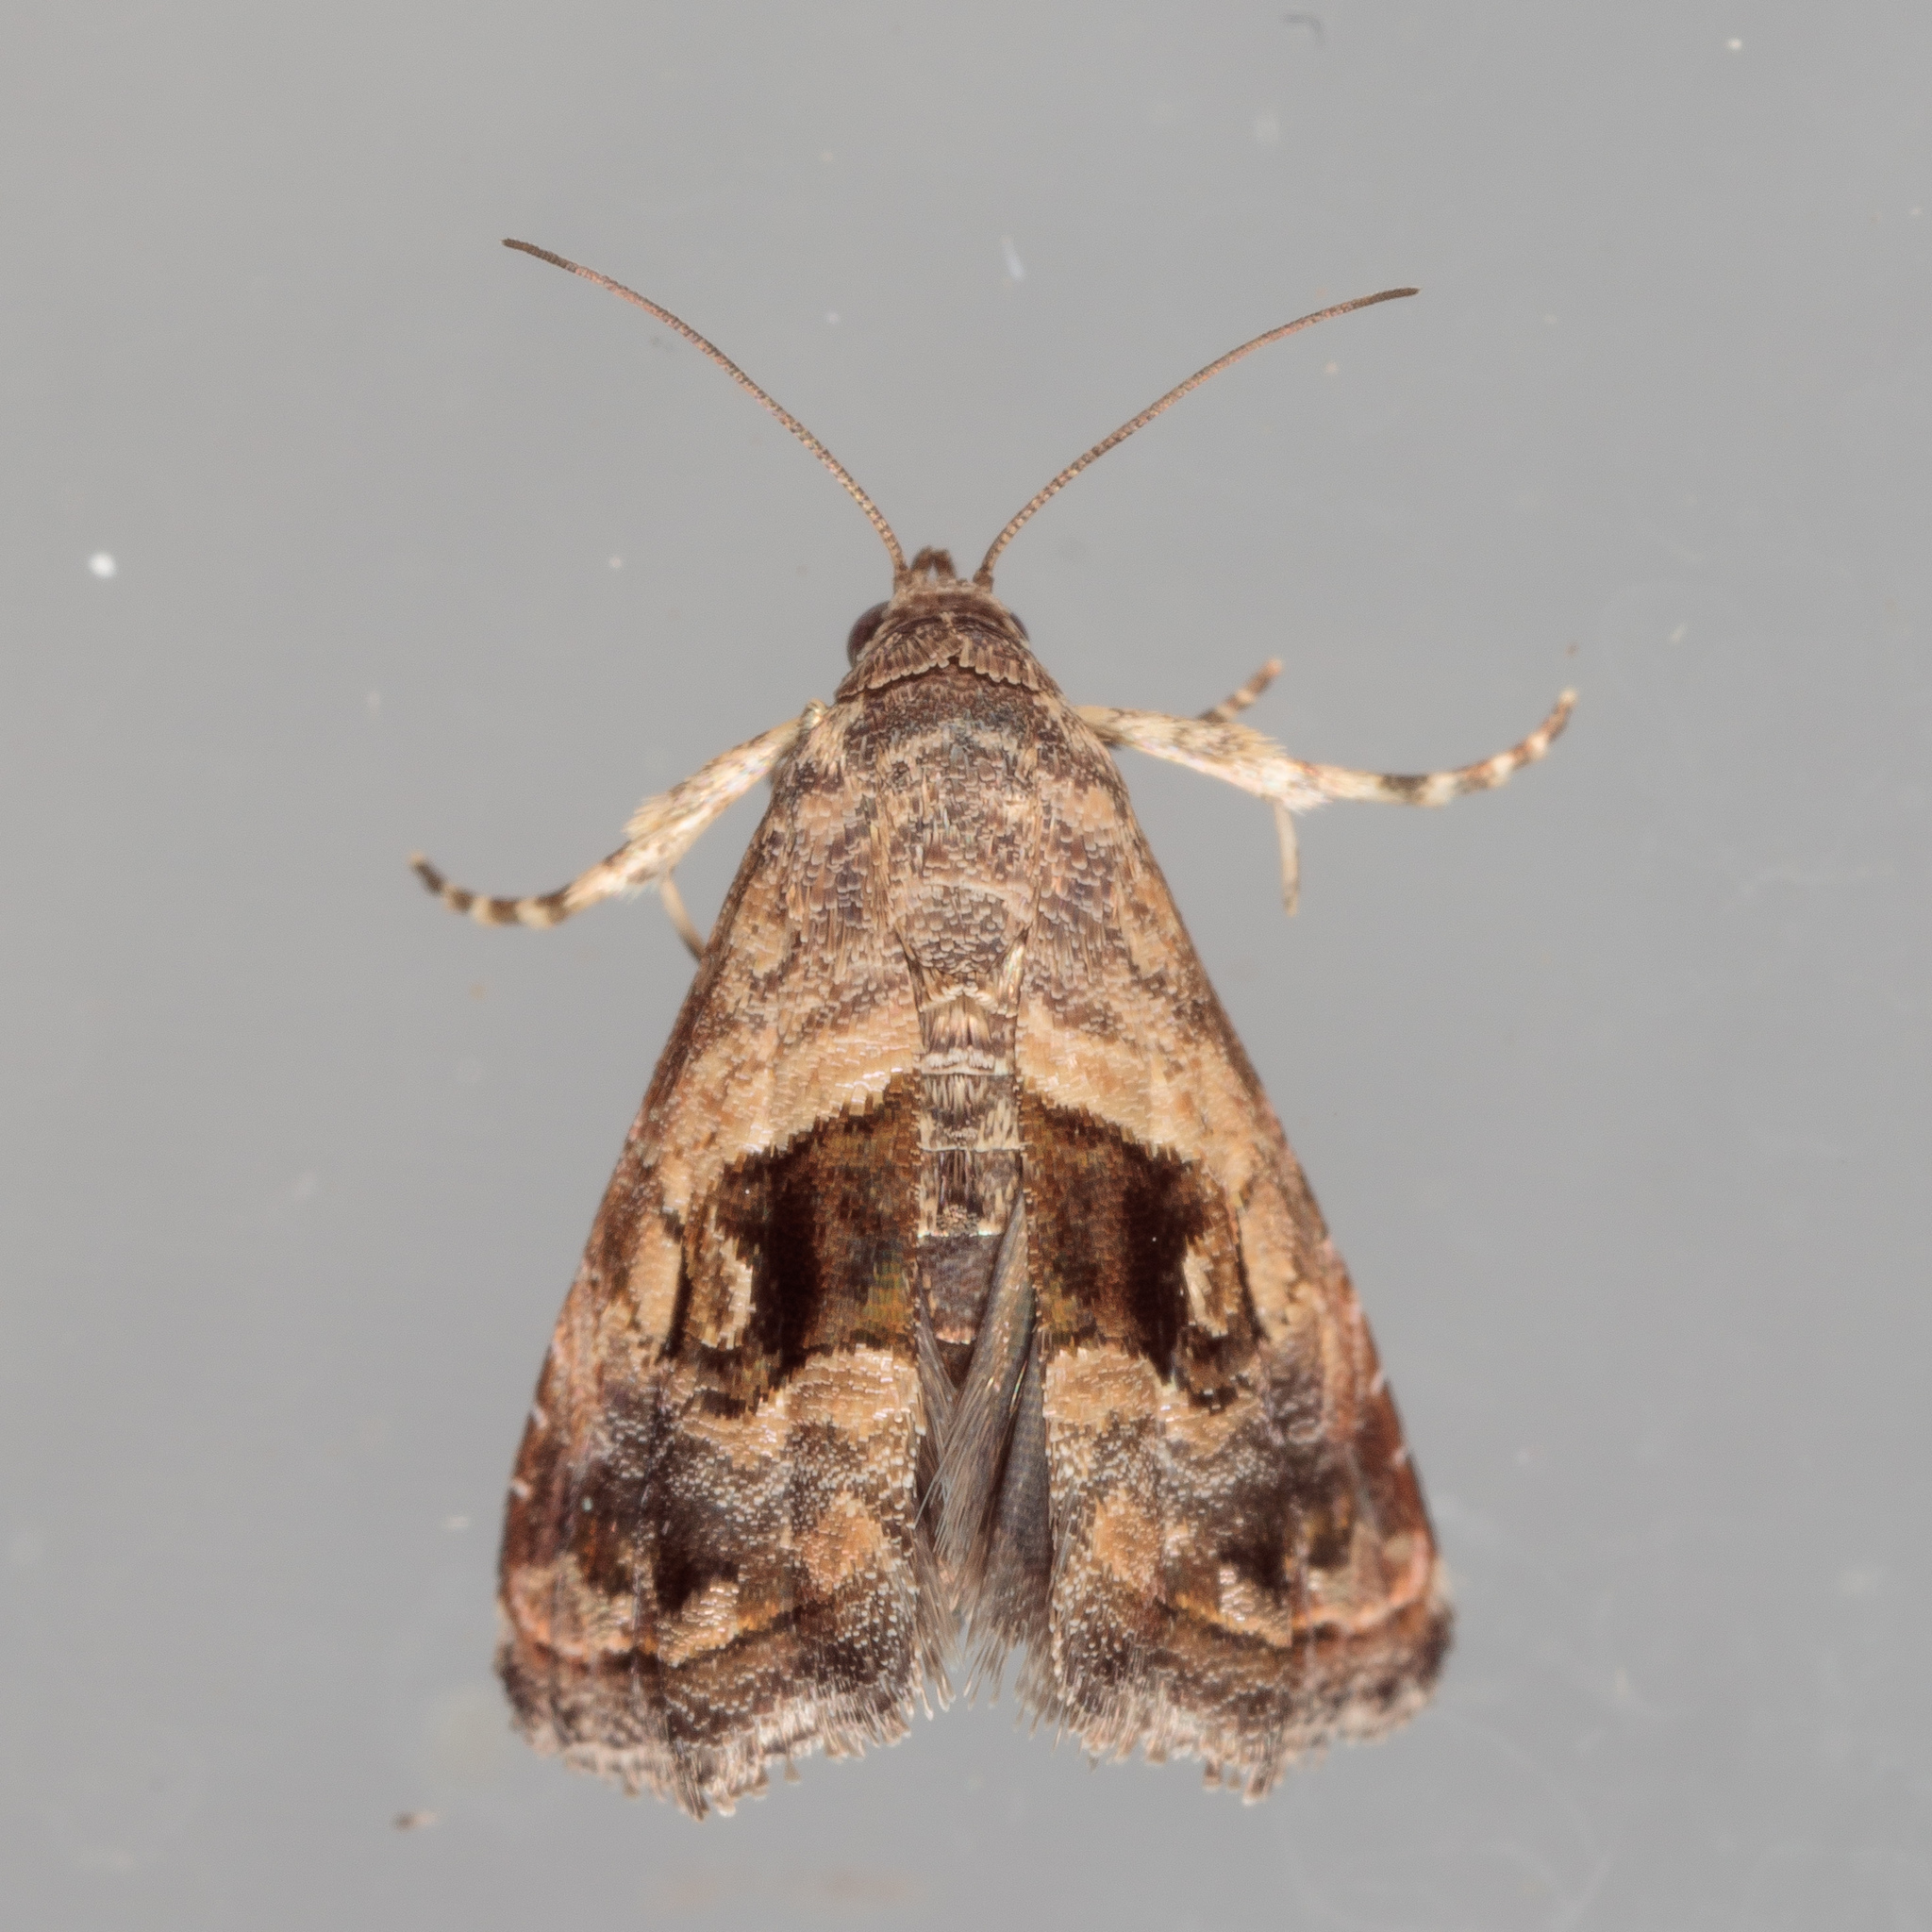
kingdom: Animalia
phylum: Arthropoda
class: Insecta
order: Lepidoptera
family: Noctuidae
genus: Tripudia
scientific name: Tripudia quadrifera
